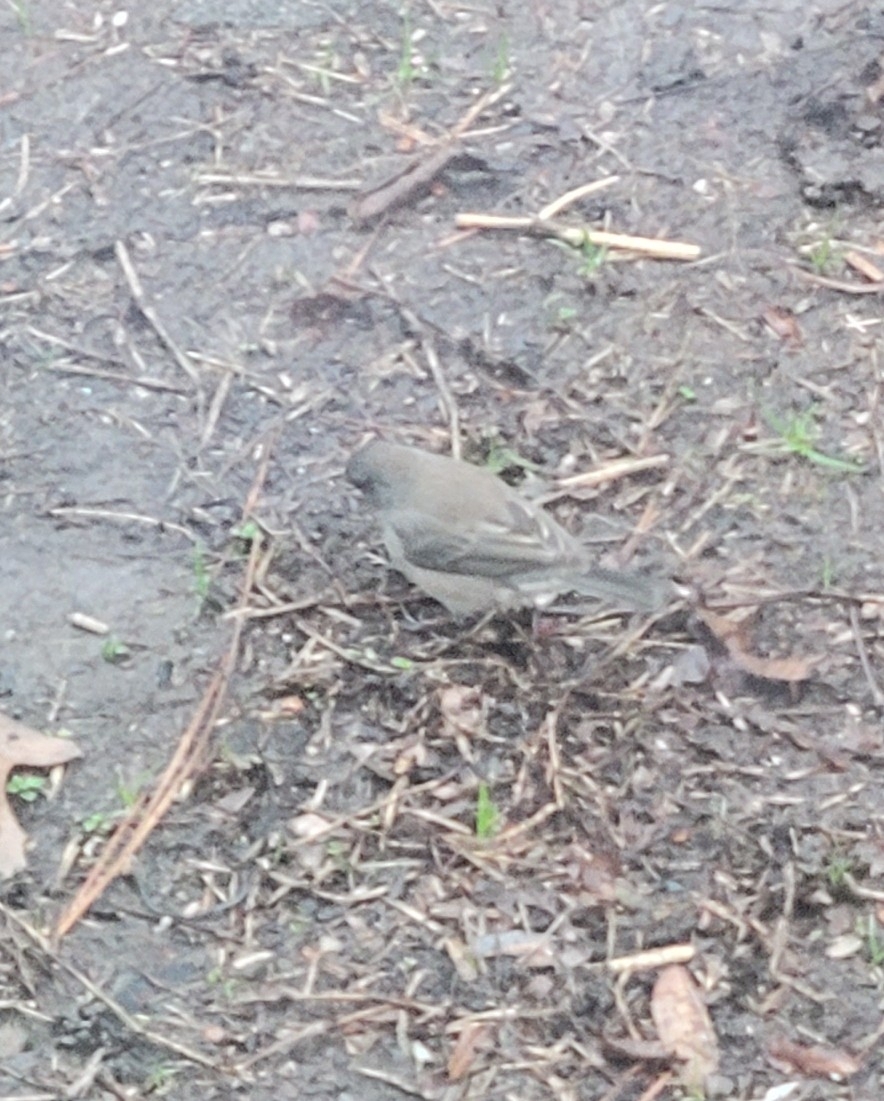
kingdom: Animalia
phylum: Chordata
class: Aves
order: Passeriformes
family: Passerellidae
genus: Junco
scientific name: Junco hyemalis
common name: Dark-eyed junco
